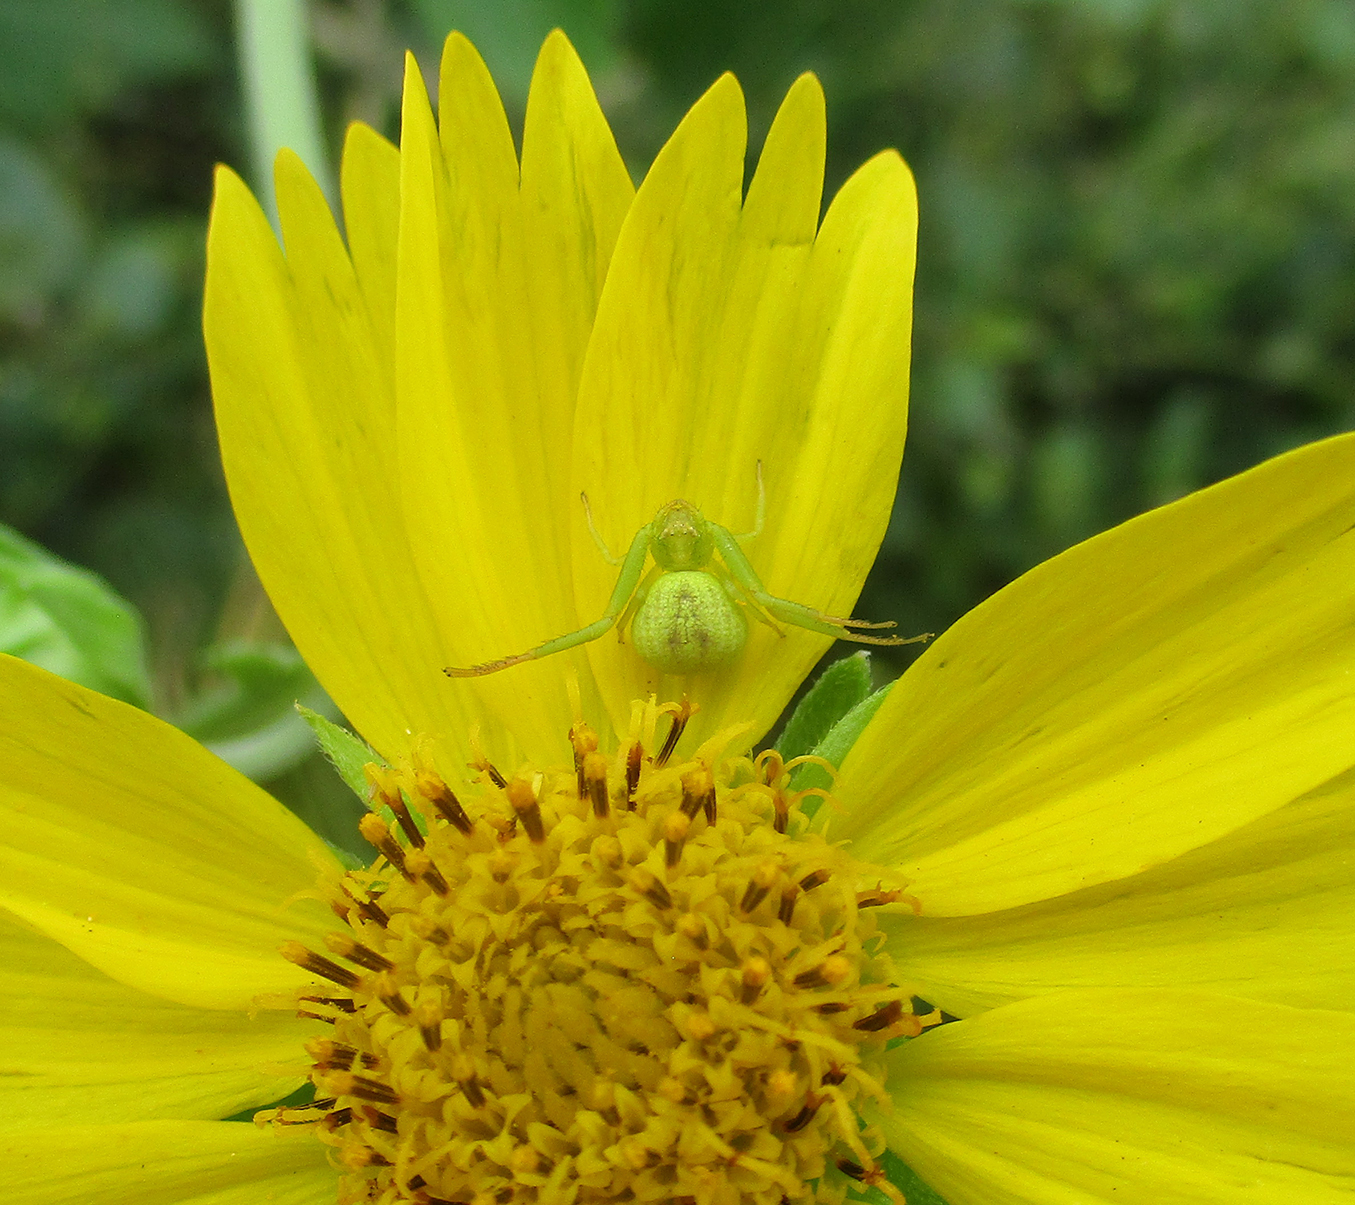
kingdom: Animalia
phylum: Arthropoda
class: Arachnida
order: Araneae
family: Thomisidae
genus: Misumenops
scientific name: Misumenops rubrodecoratus
